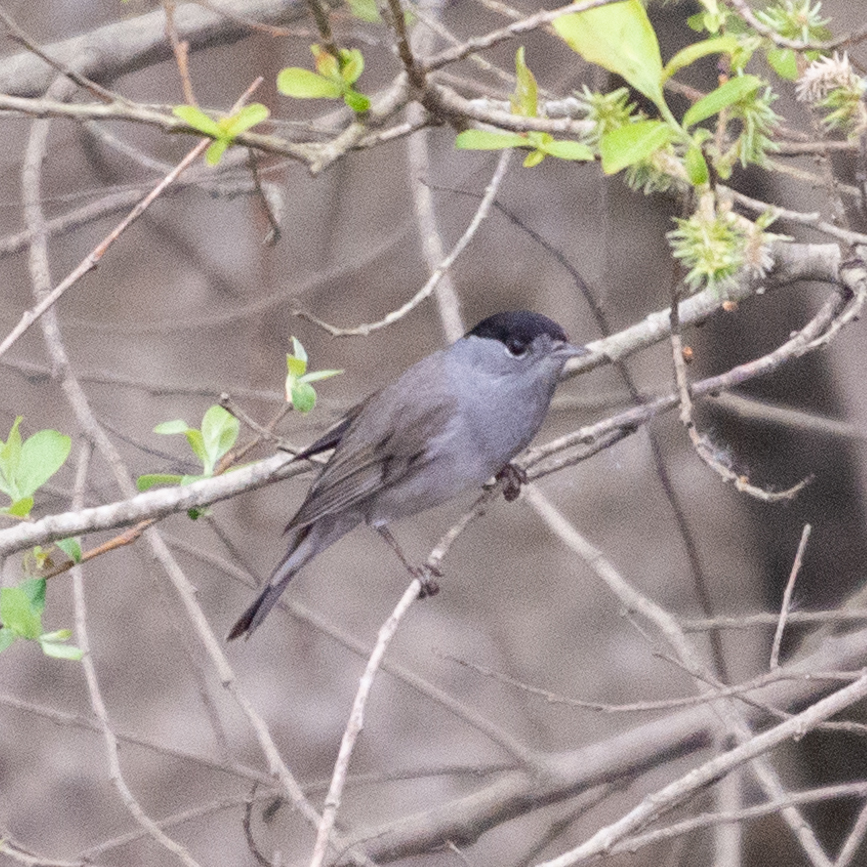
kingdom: Animalia
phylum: Chordata
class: Aves
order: Passeriformes
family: Sylviidae
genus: Sylvia
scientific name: Sylvia atricapilla
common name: Eurasian blackcap
